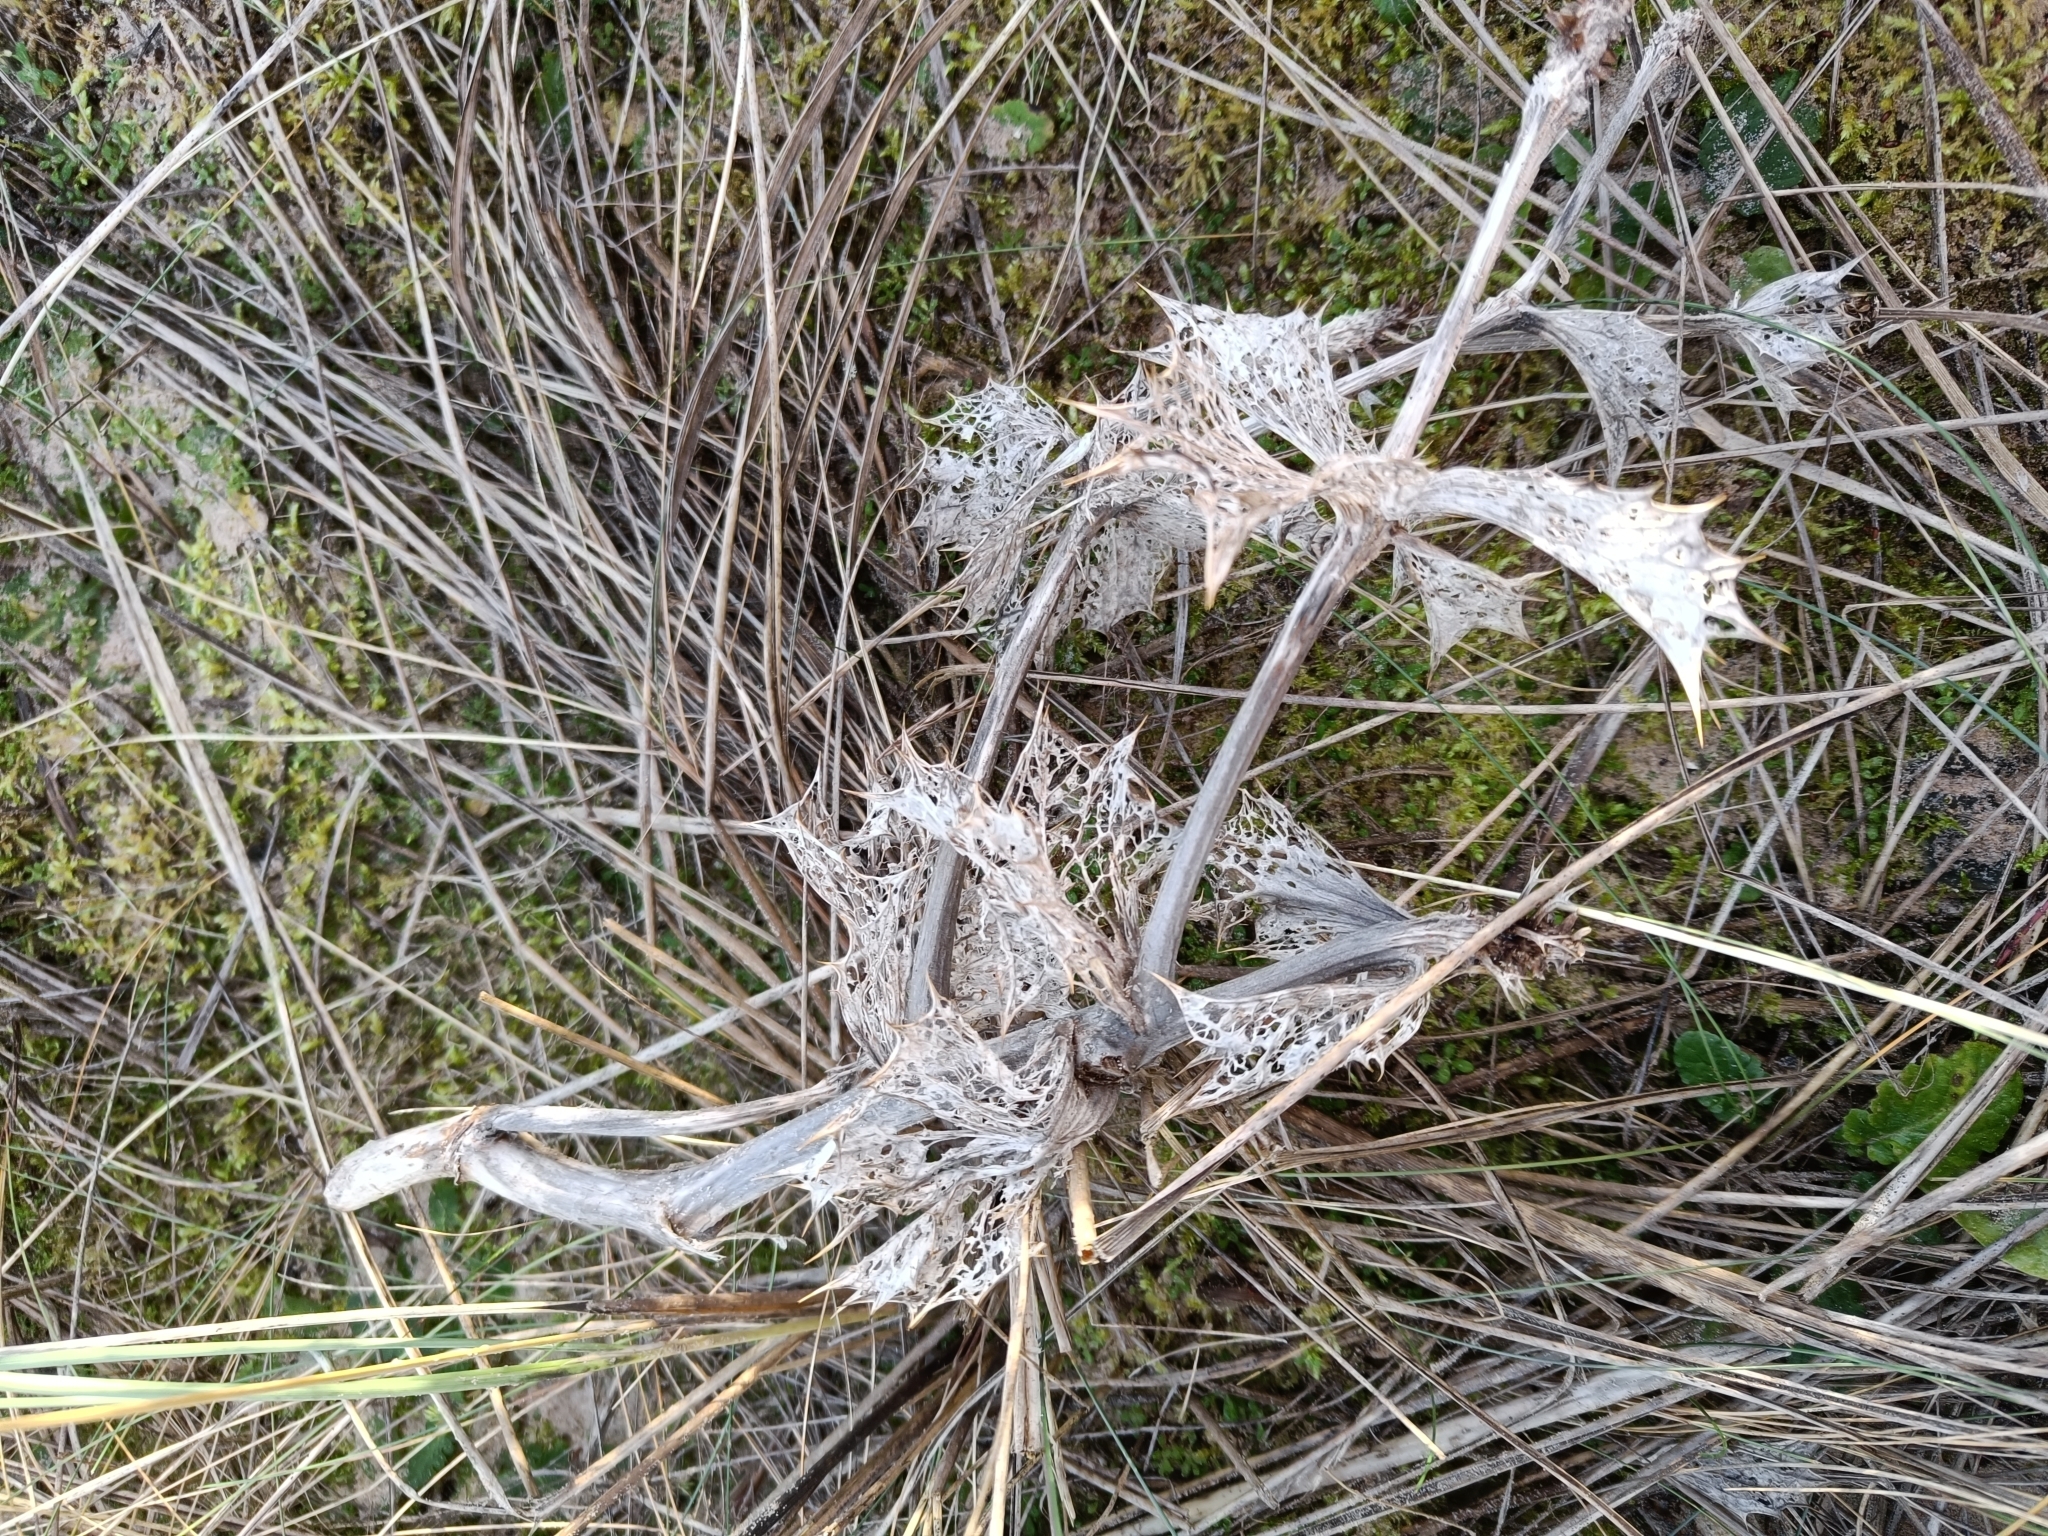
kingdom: Plantae
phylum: Tracheophyta
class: Magnoliopsida
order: Apiales
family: Apiaceae
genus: Eryngium
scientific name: Eryngium maritimum
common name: Sea-holly
